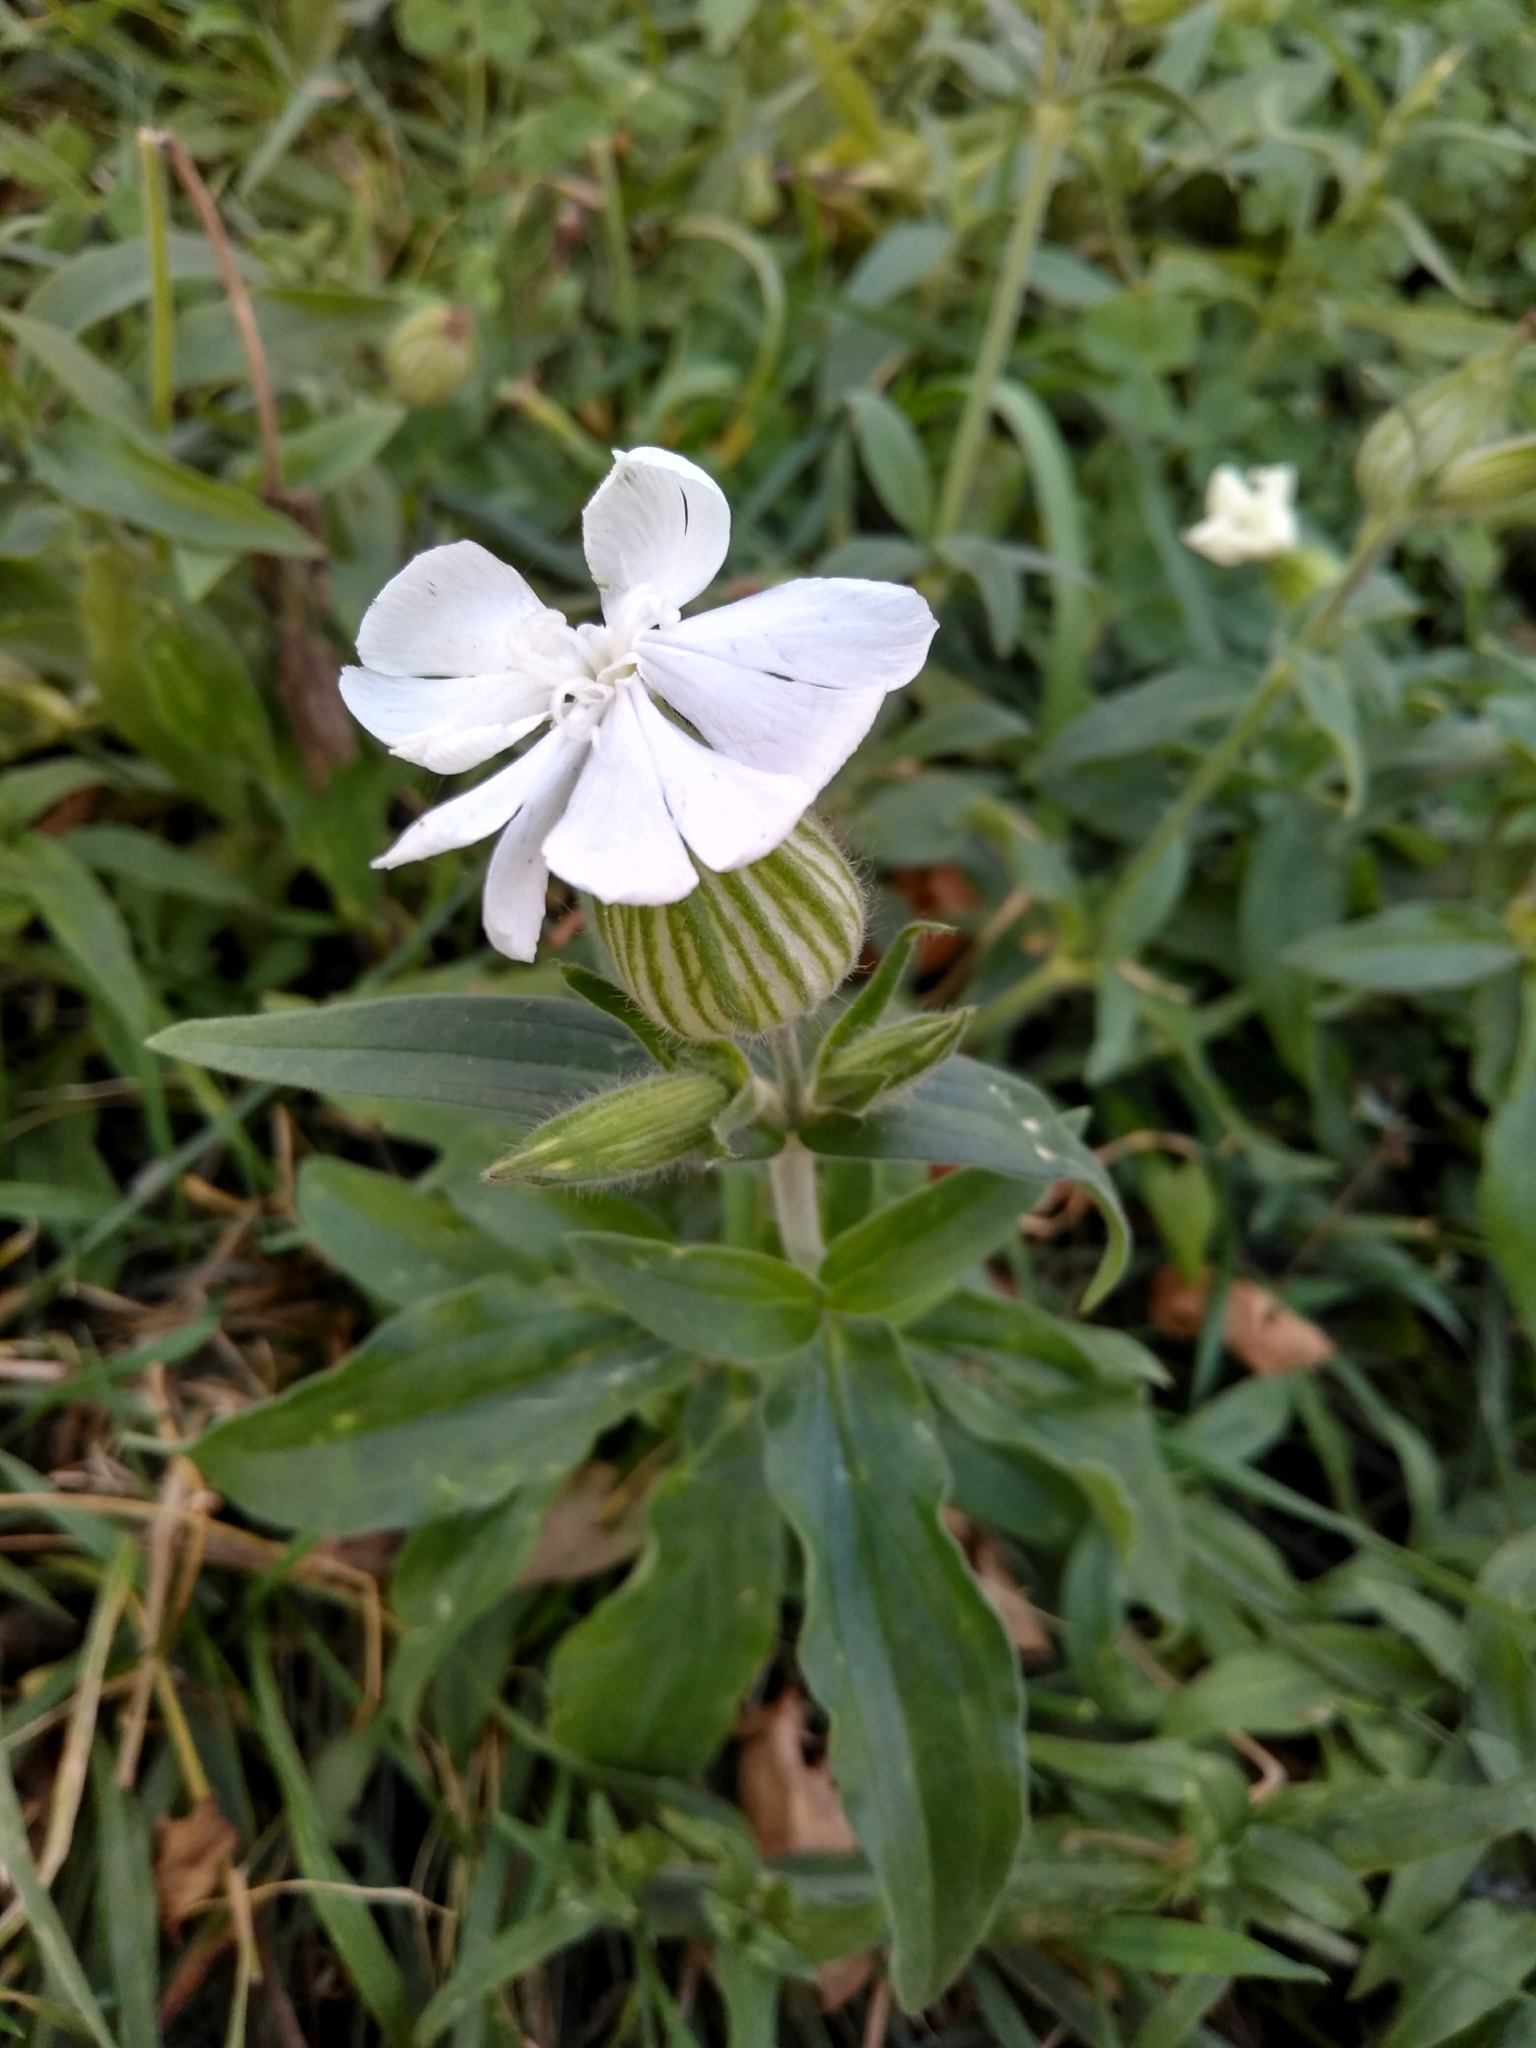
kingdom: Plantae
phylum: Tracheophyta
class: Magnoliopsida
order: Caryophyllales
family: Caryophyllaceae
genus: Silene
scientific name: Silene latifolia
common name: White campion
